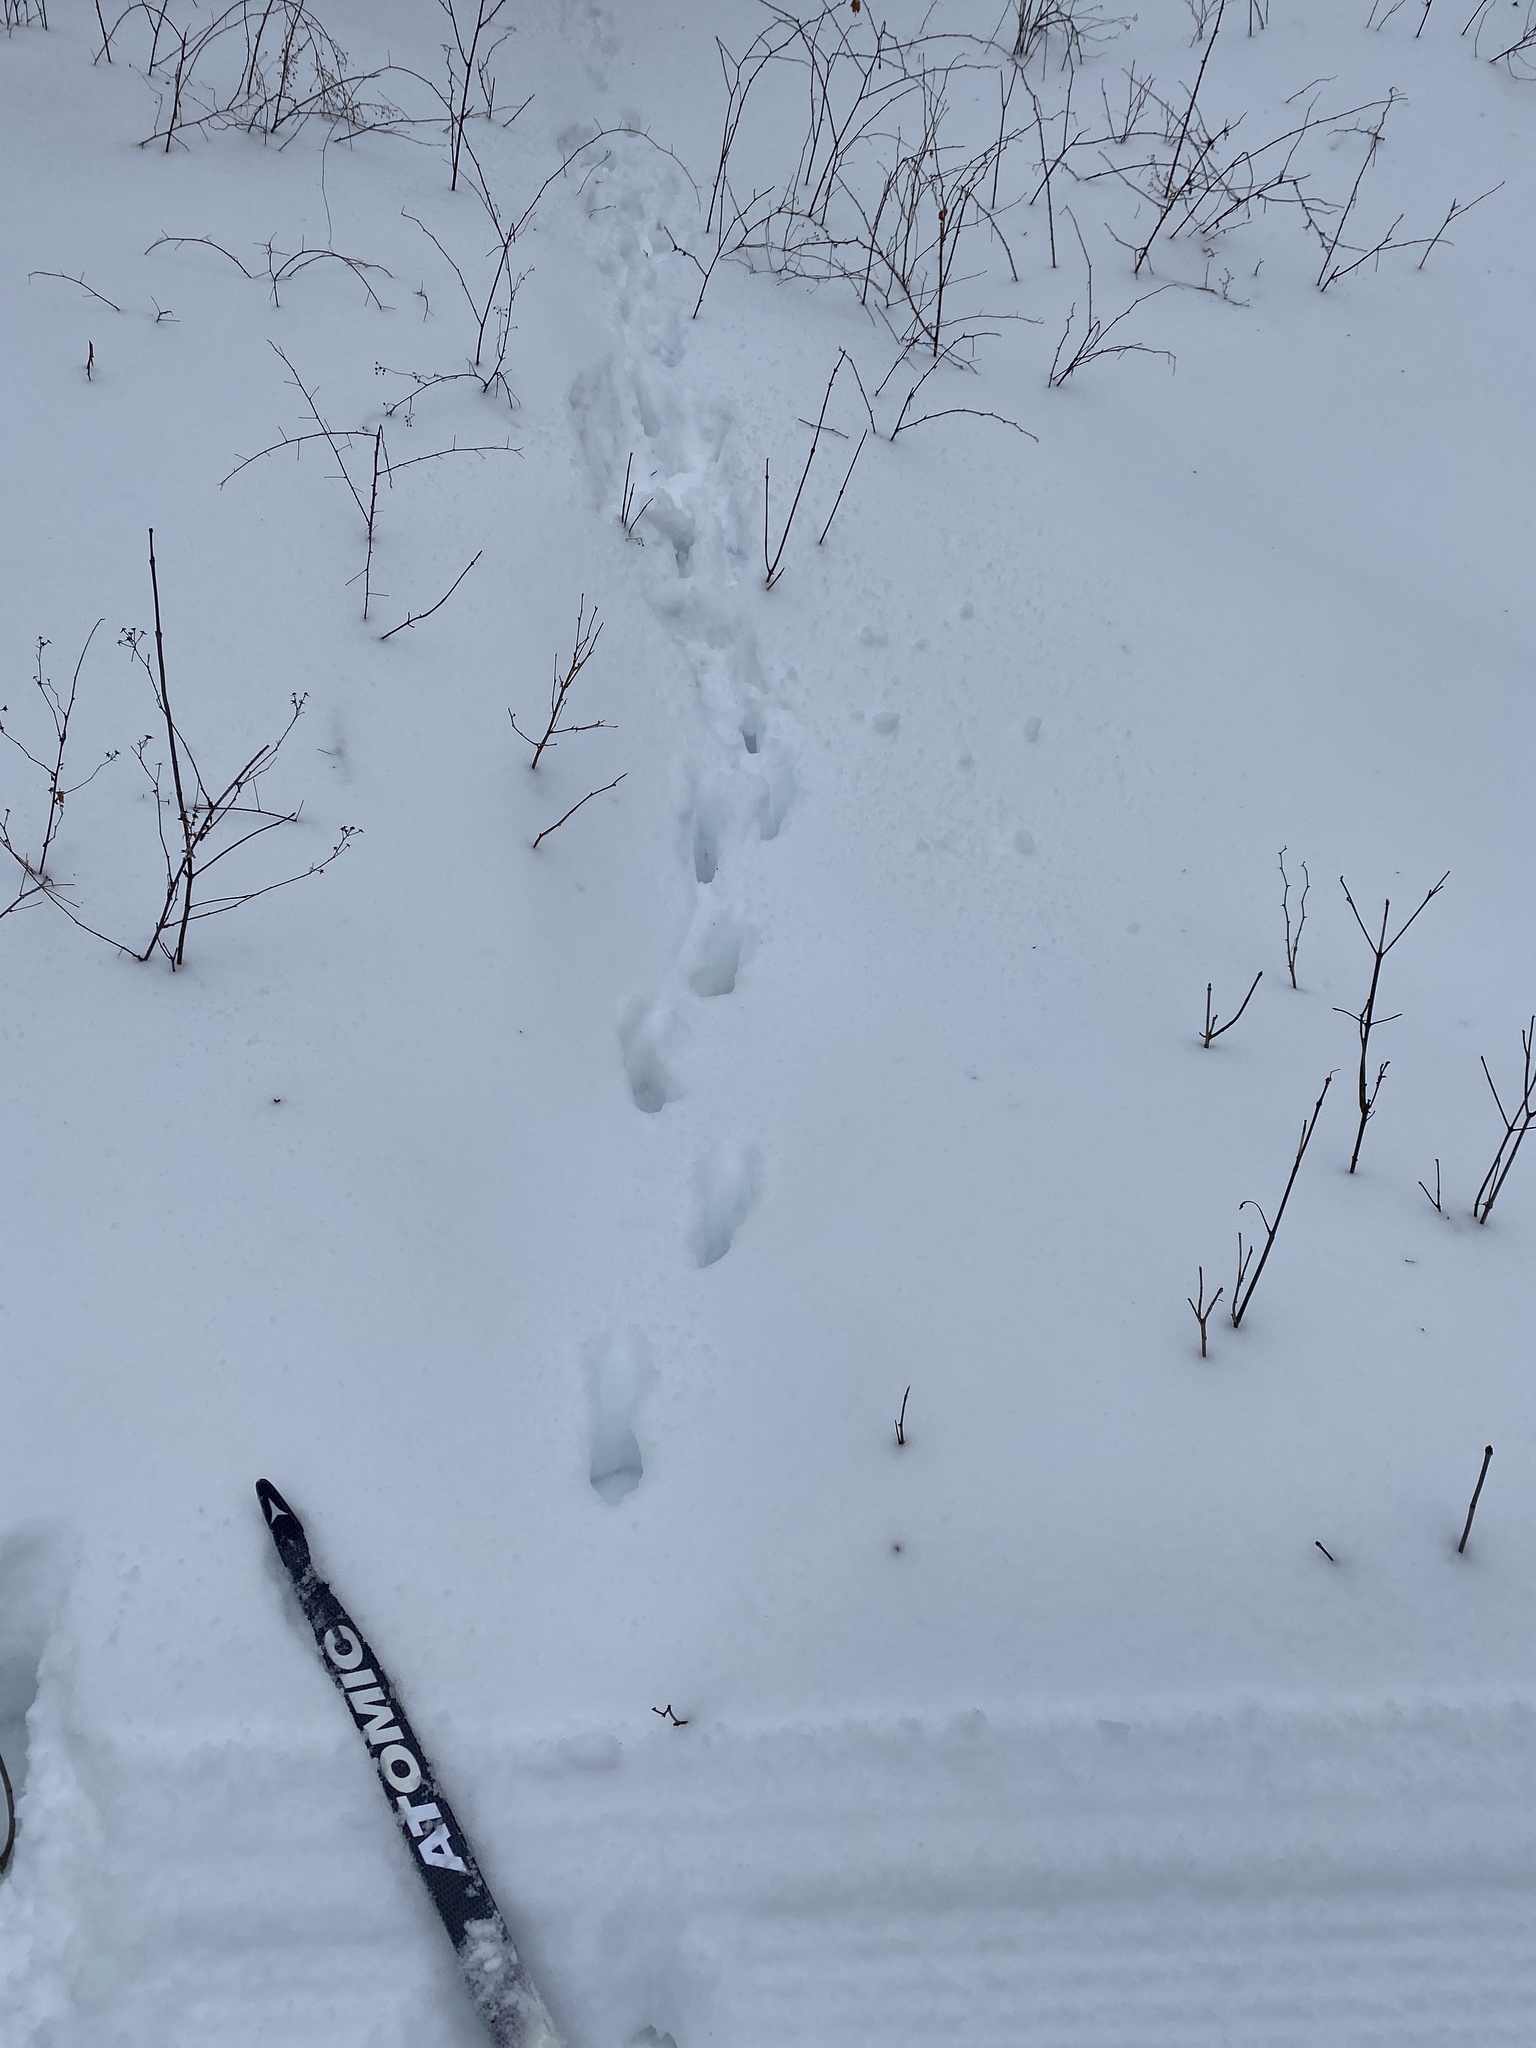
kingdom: Animalia
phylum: Chordata
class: Mammalia
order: Artiodactyla
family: Cervidae
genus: Odocoileus
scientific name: Odocoileus virginianus
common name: White-tailed deer
